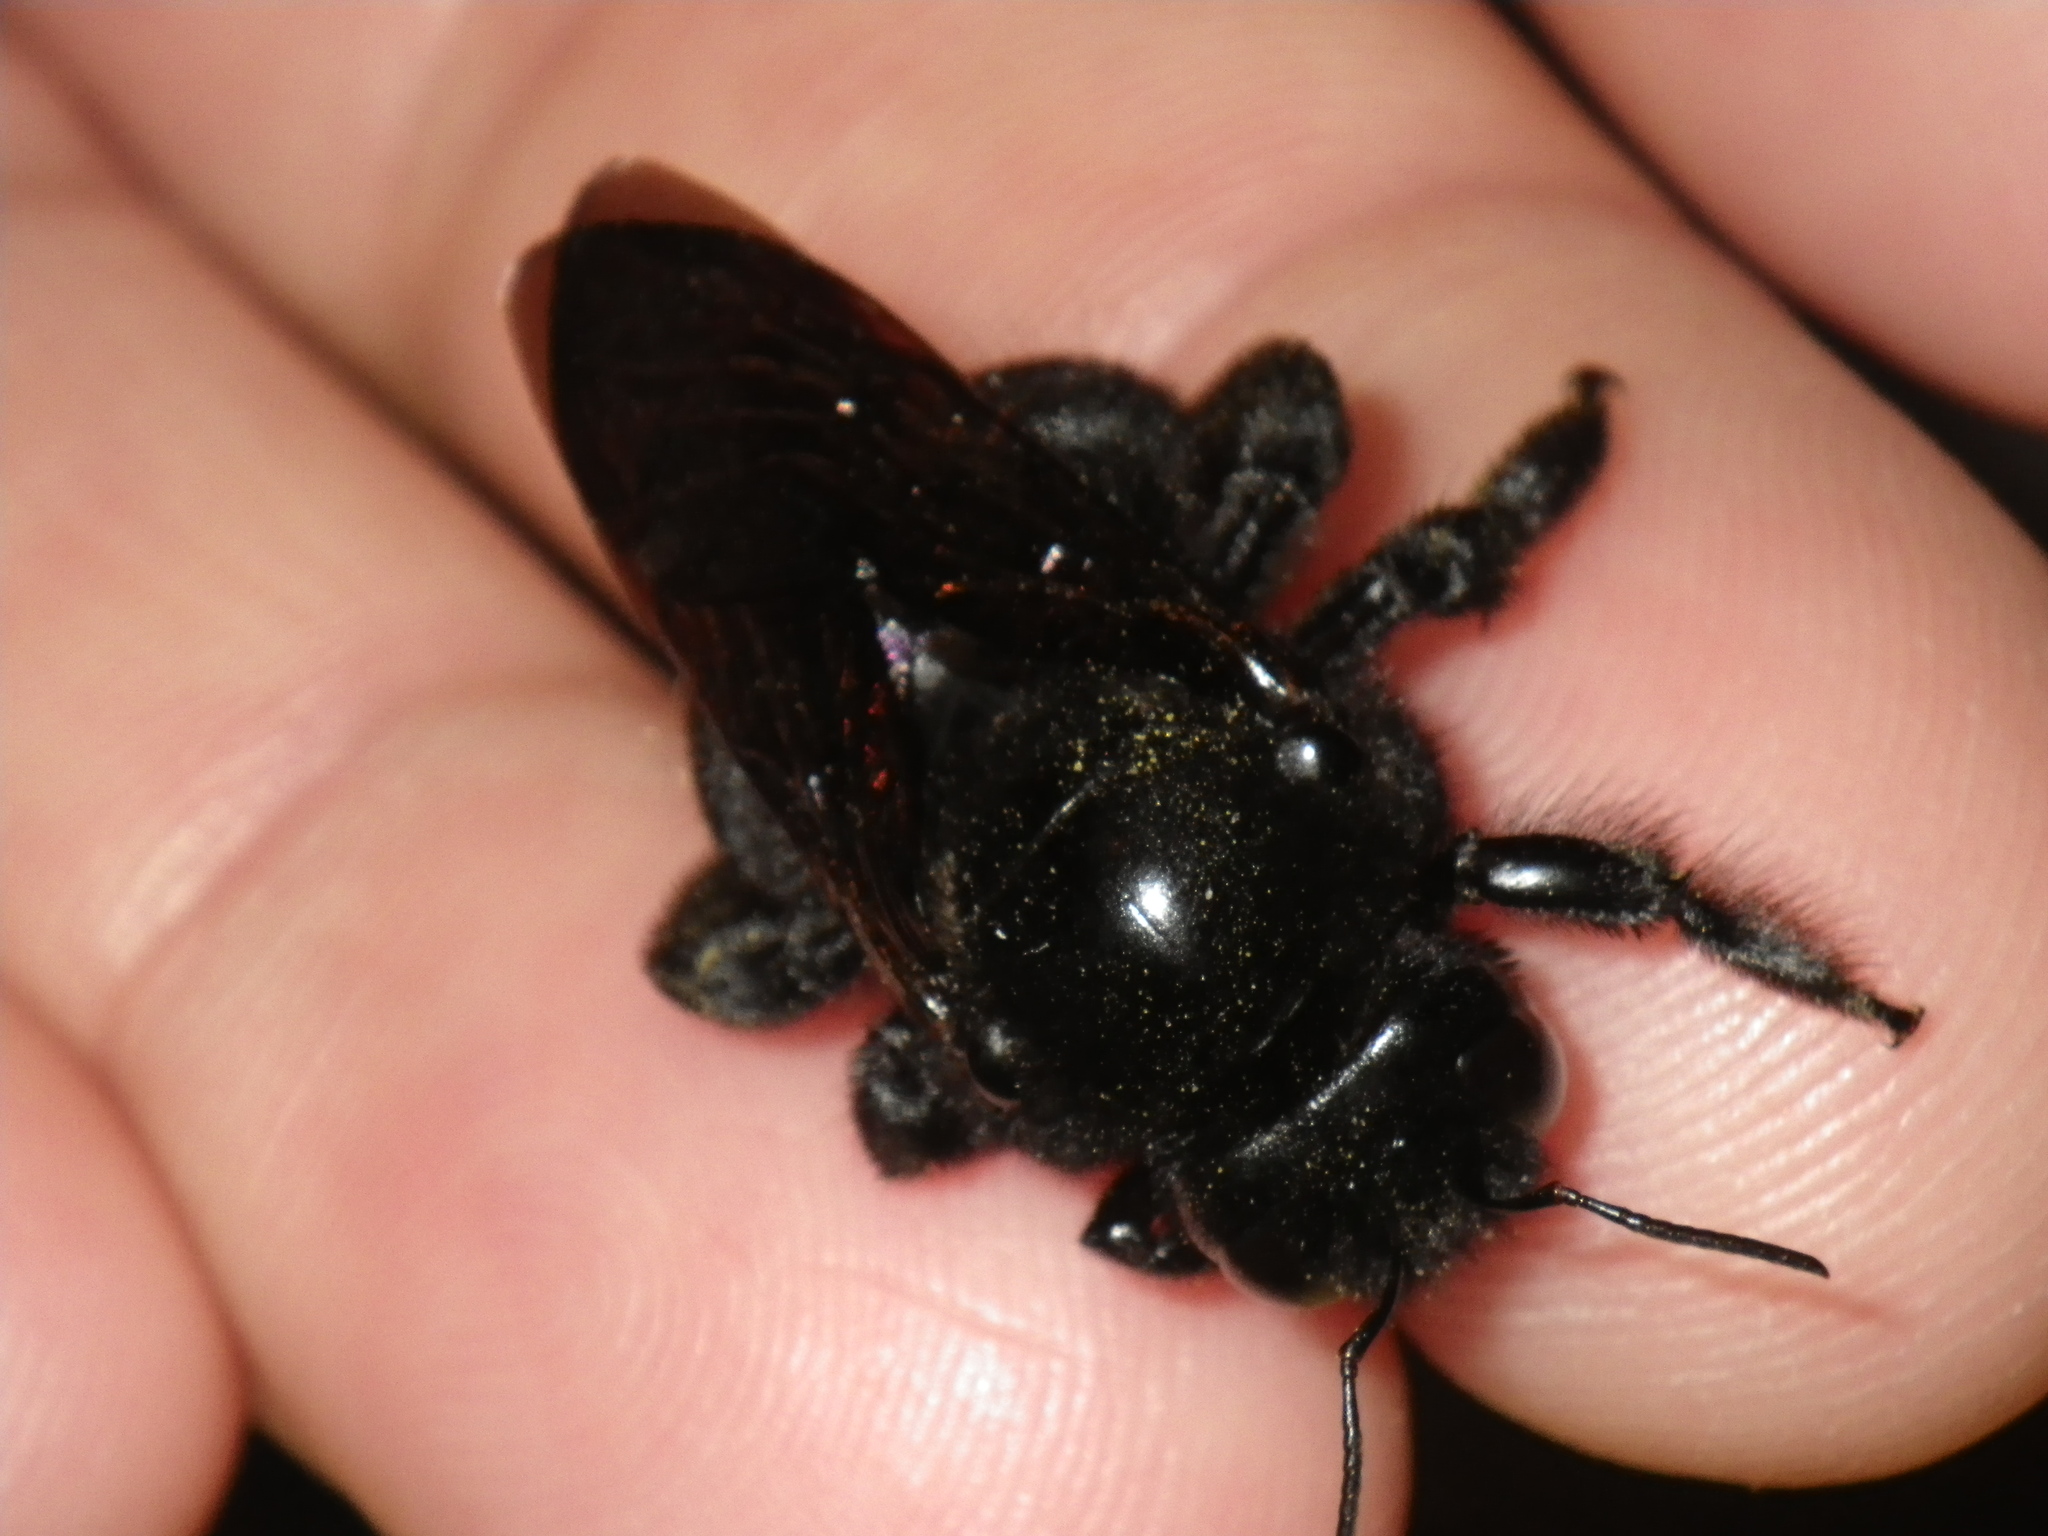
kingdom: Animalia
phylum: Arthropoda
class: Insecta
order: Hymenoptera
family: Apidae
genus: Xylocopa
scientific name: Xylocopa sonorina
